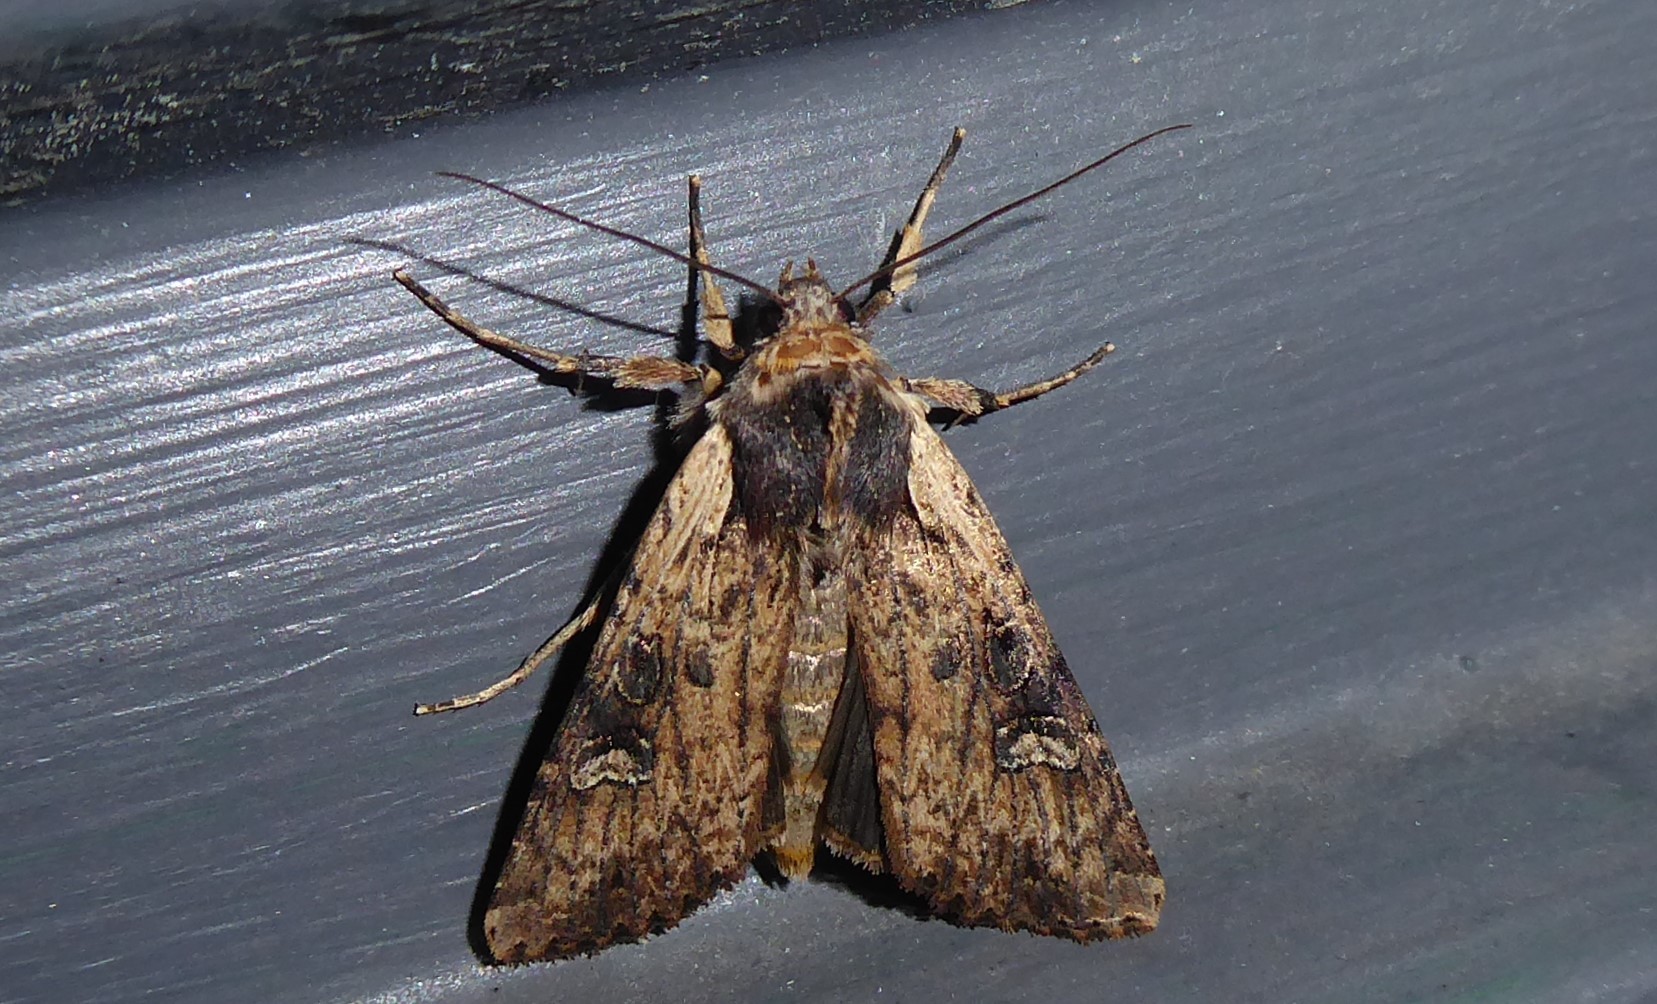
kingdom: Animalia
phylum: Arthropoda
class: Insecta
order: Lepidoptera
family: Noctuidae
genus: Ichneutica
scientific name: Ichneutica omoplaca
